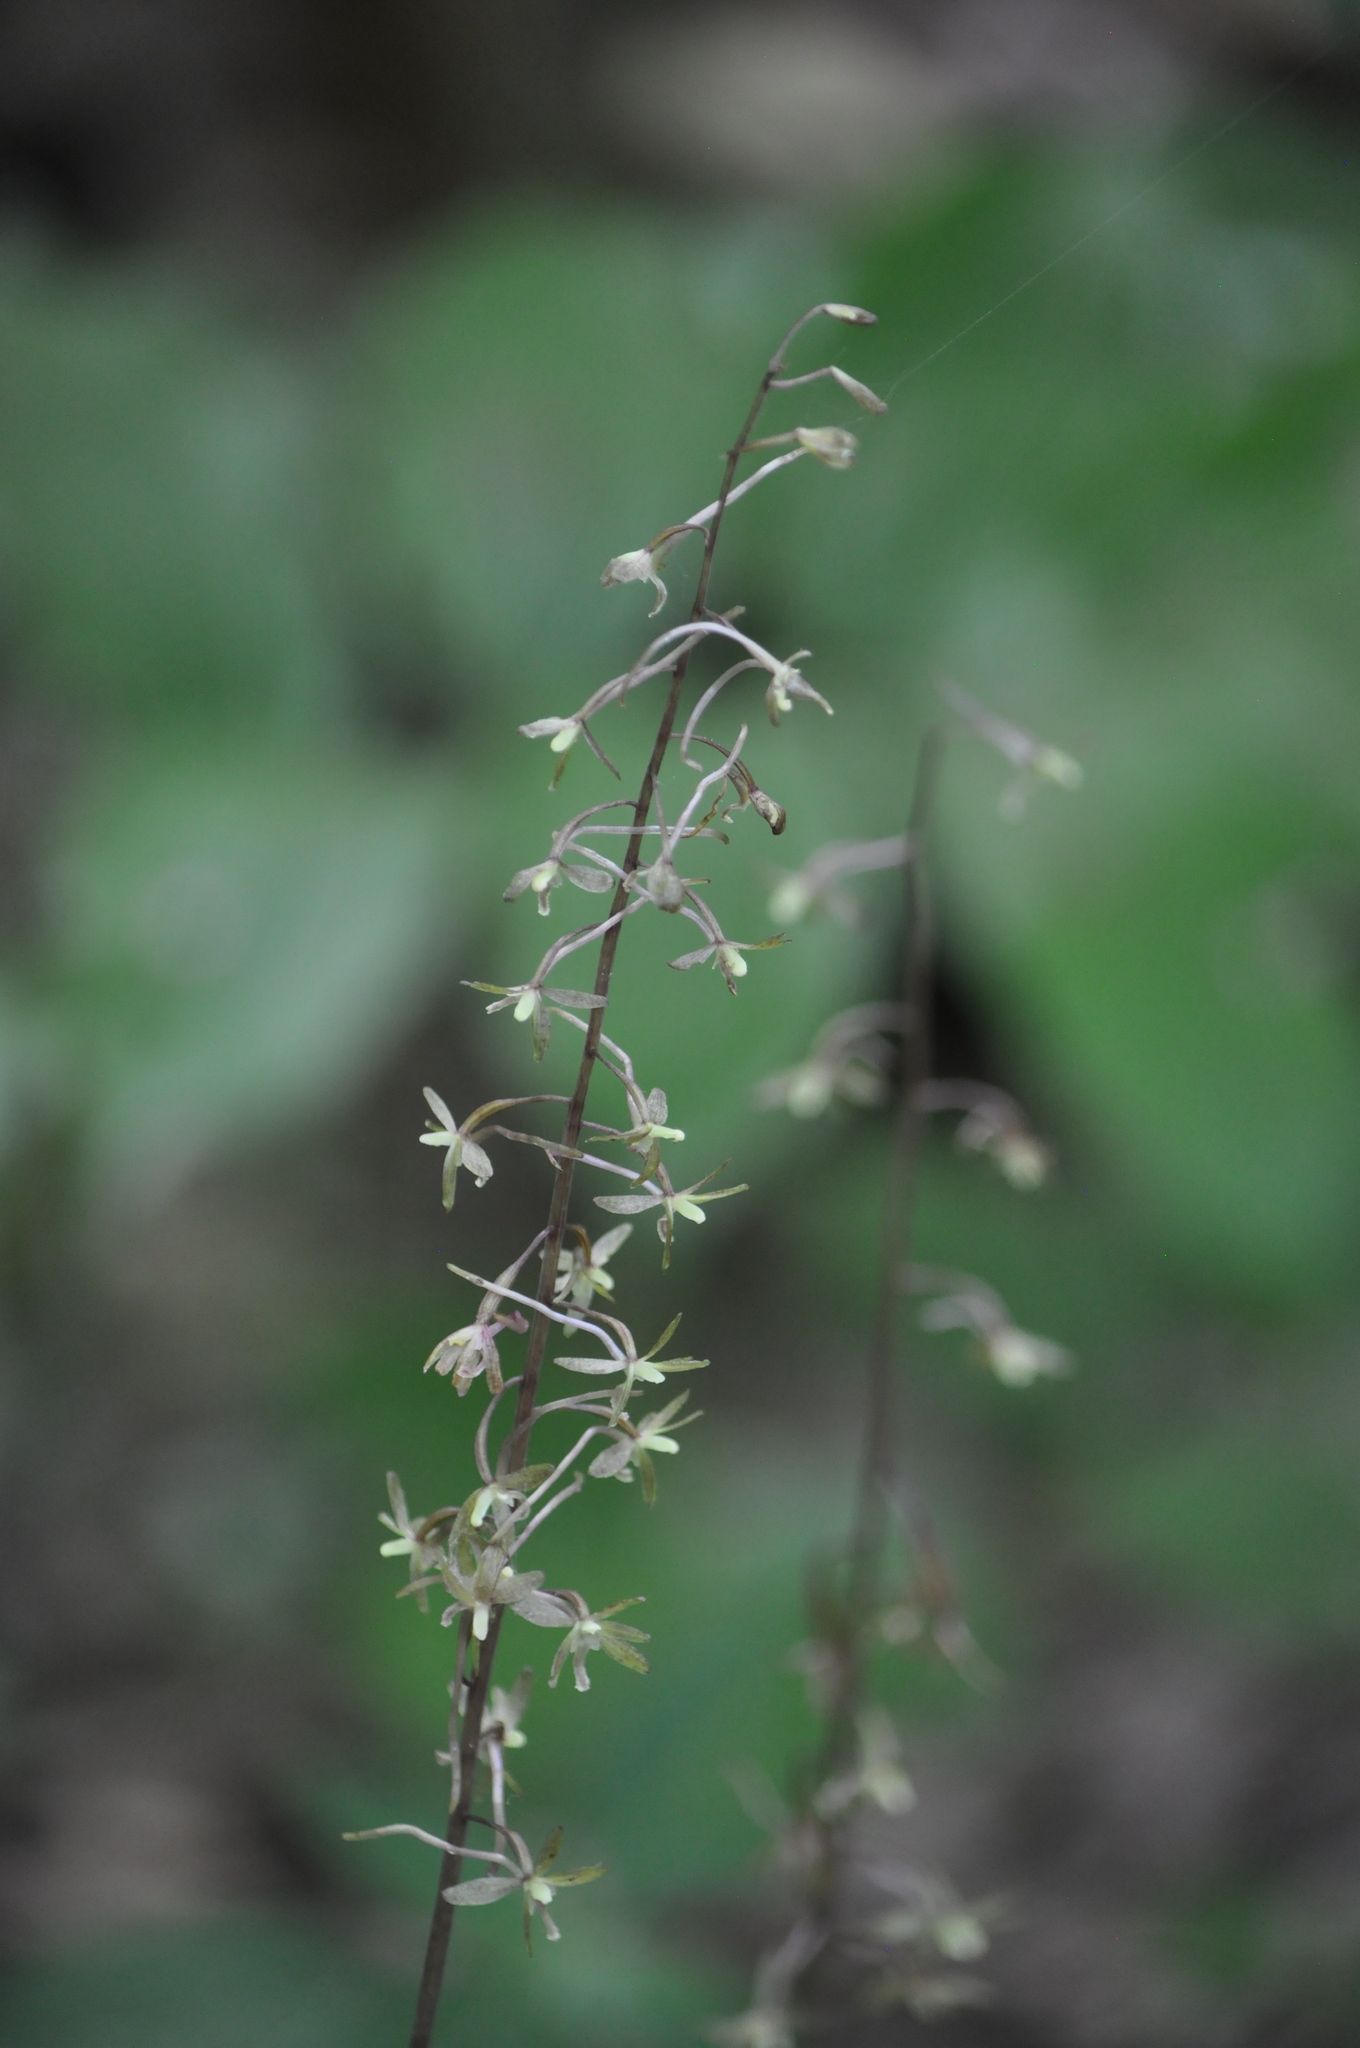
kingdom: Plantae
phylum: Tracheophyta
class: Liliopsida
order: Asparagales
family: Orchidaceae
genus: Tipularia
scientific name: Tipularia discolor
